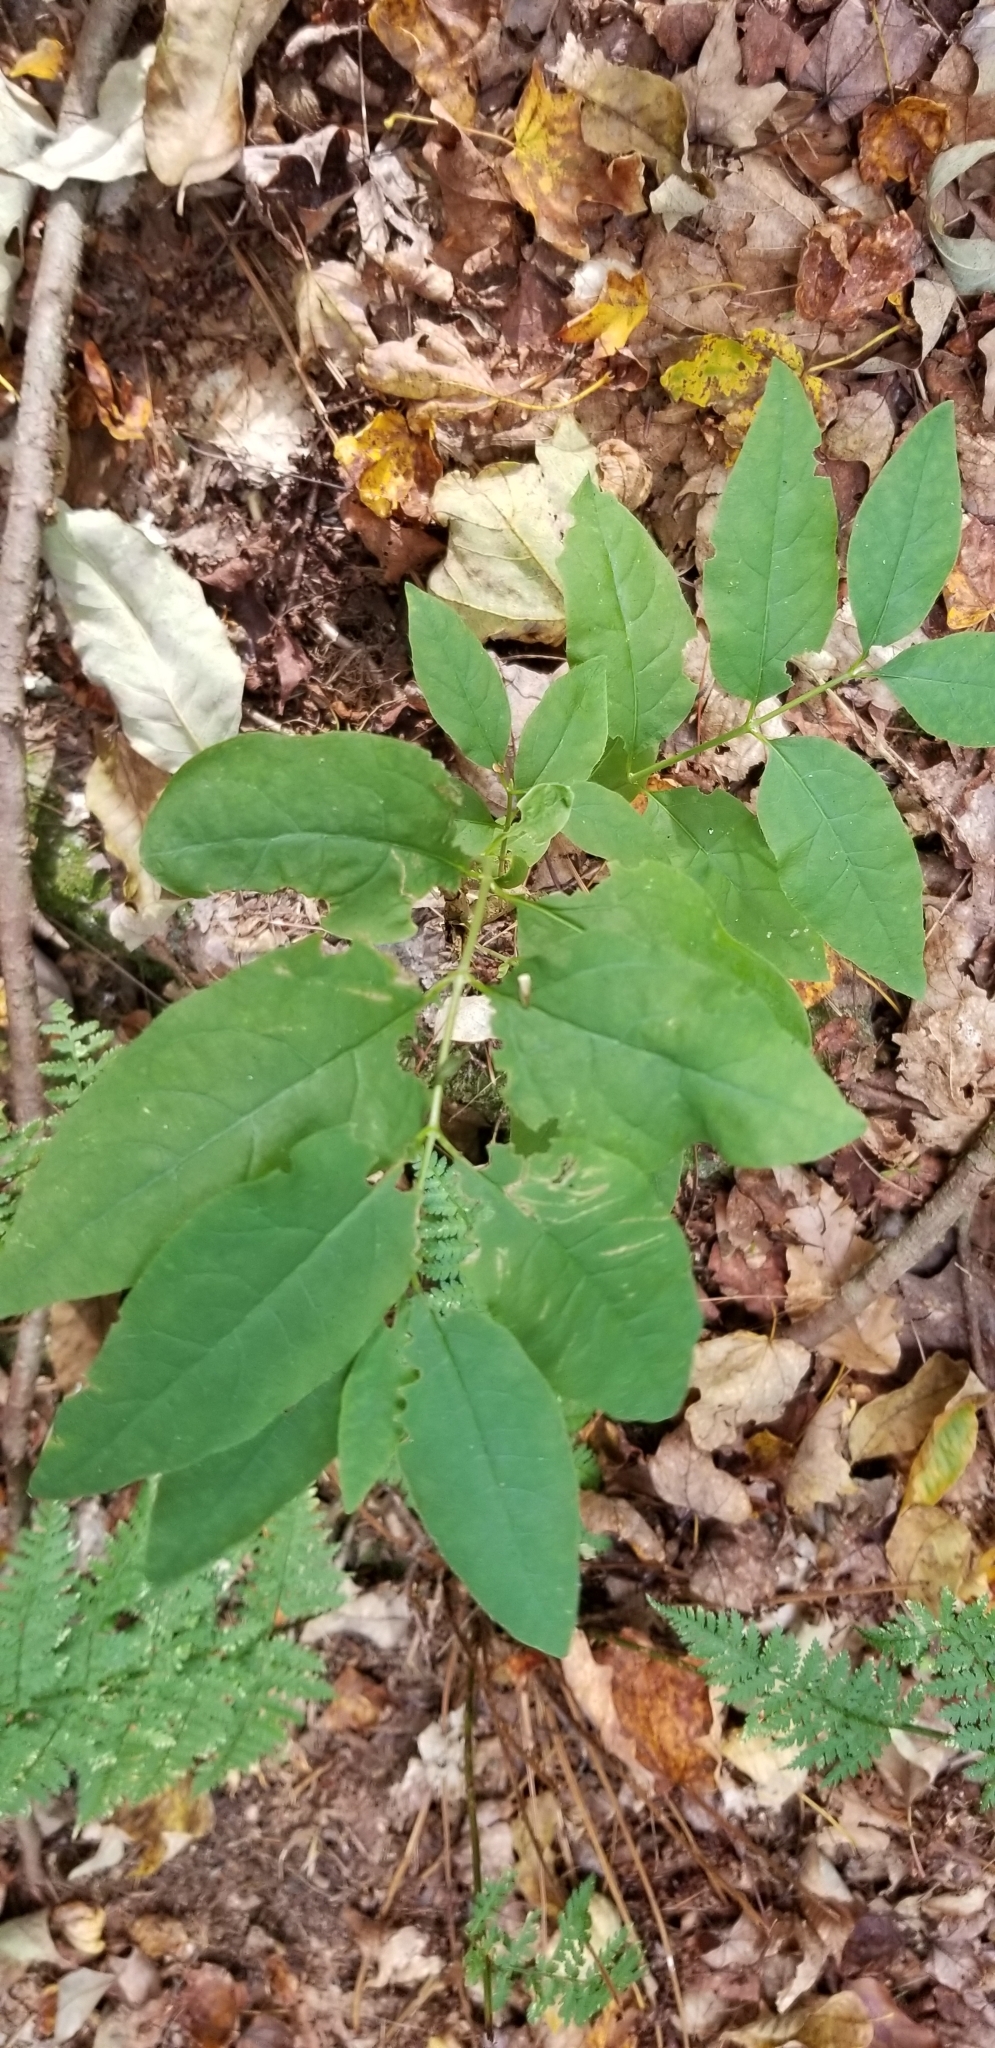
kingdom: Plantae
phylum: Tracheophyta
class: Magnoliopsida
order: Dipsacales
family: Caprifoliaceae
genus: Lonicera
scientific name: Lonicera canadensis
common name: American fly-honeysuckle
